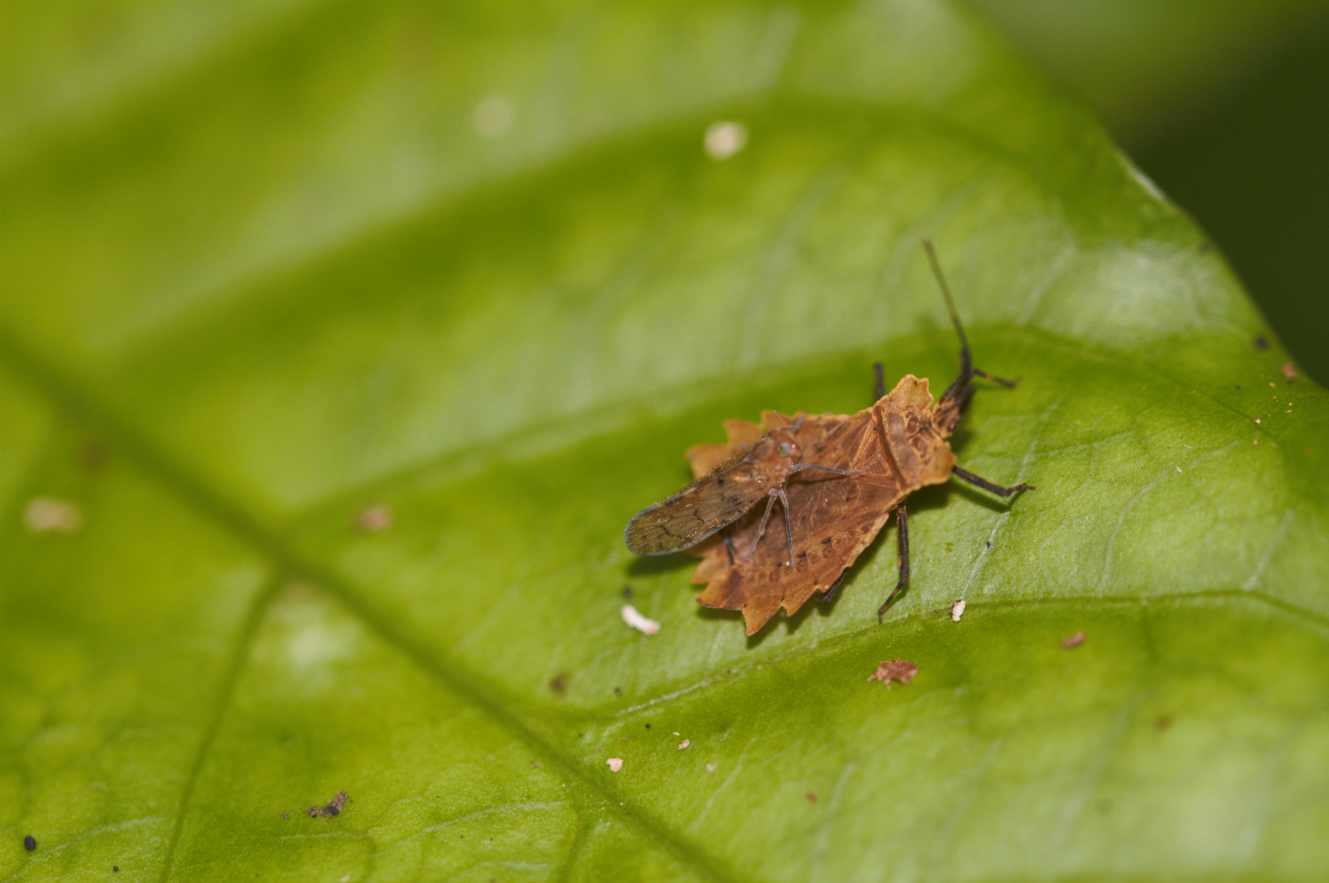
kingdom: Animalia
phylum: Arthropoda
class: Insecta
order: Hemiptera
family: Aradidae
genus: Phyllotingis
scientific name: Phyllotingis lanceolata
